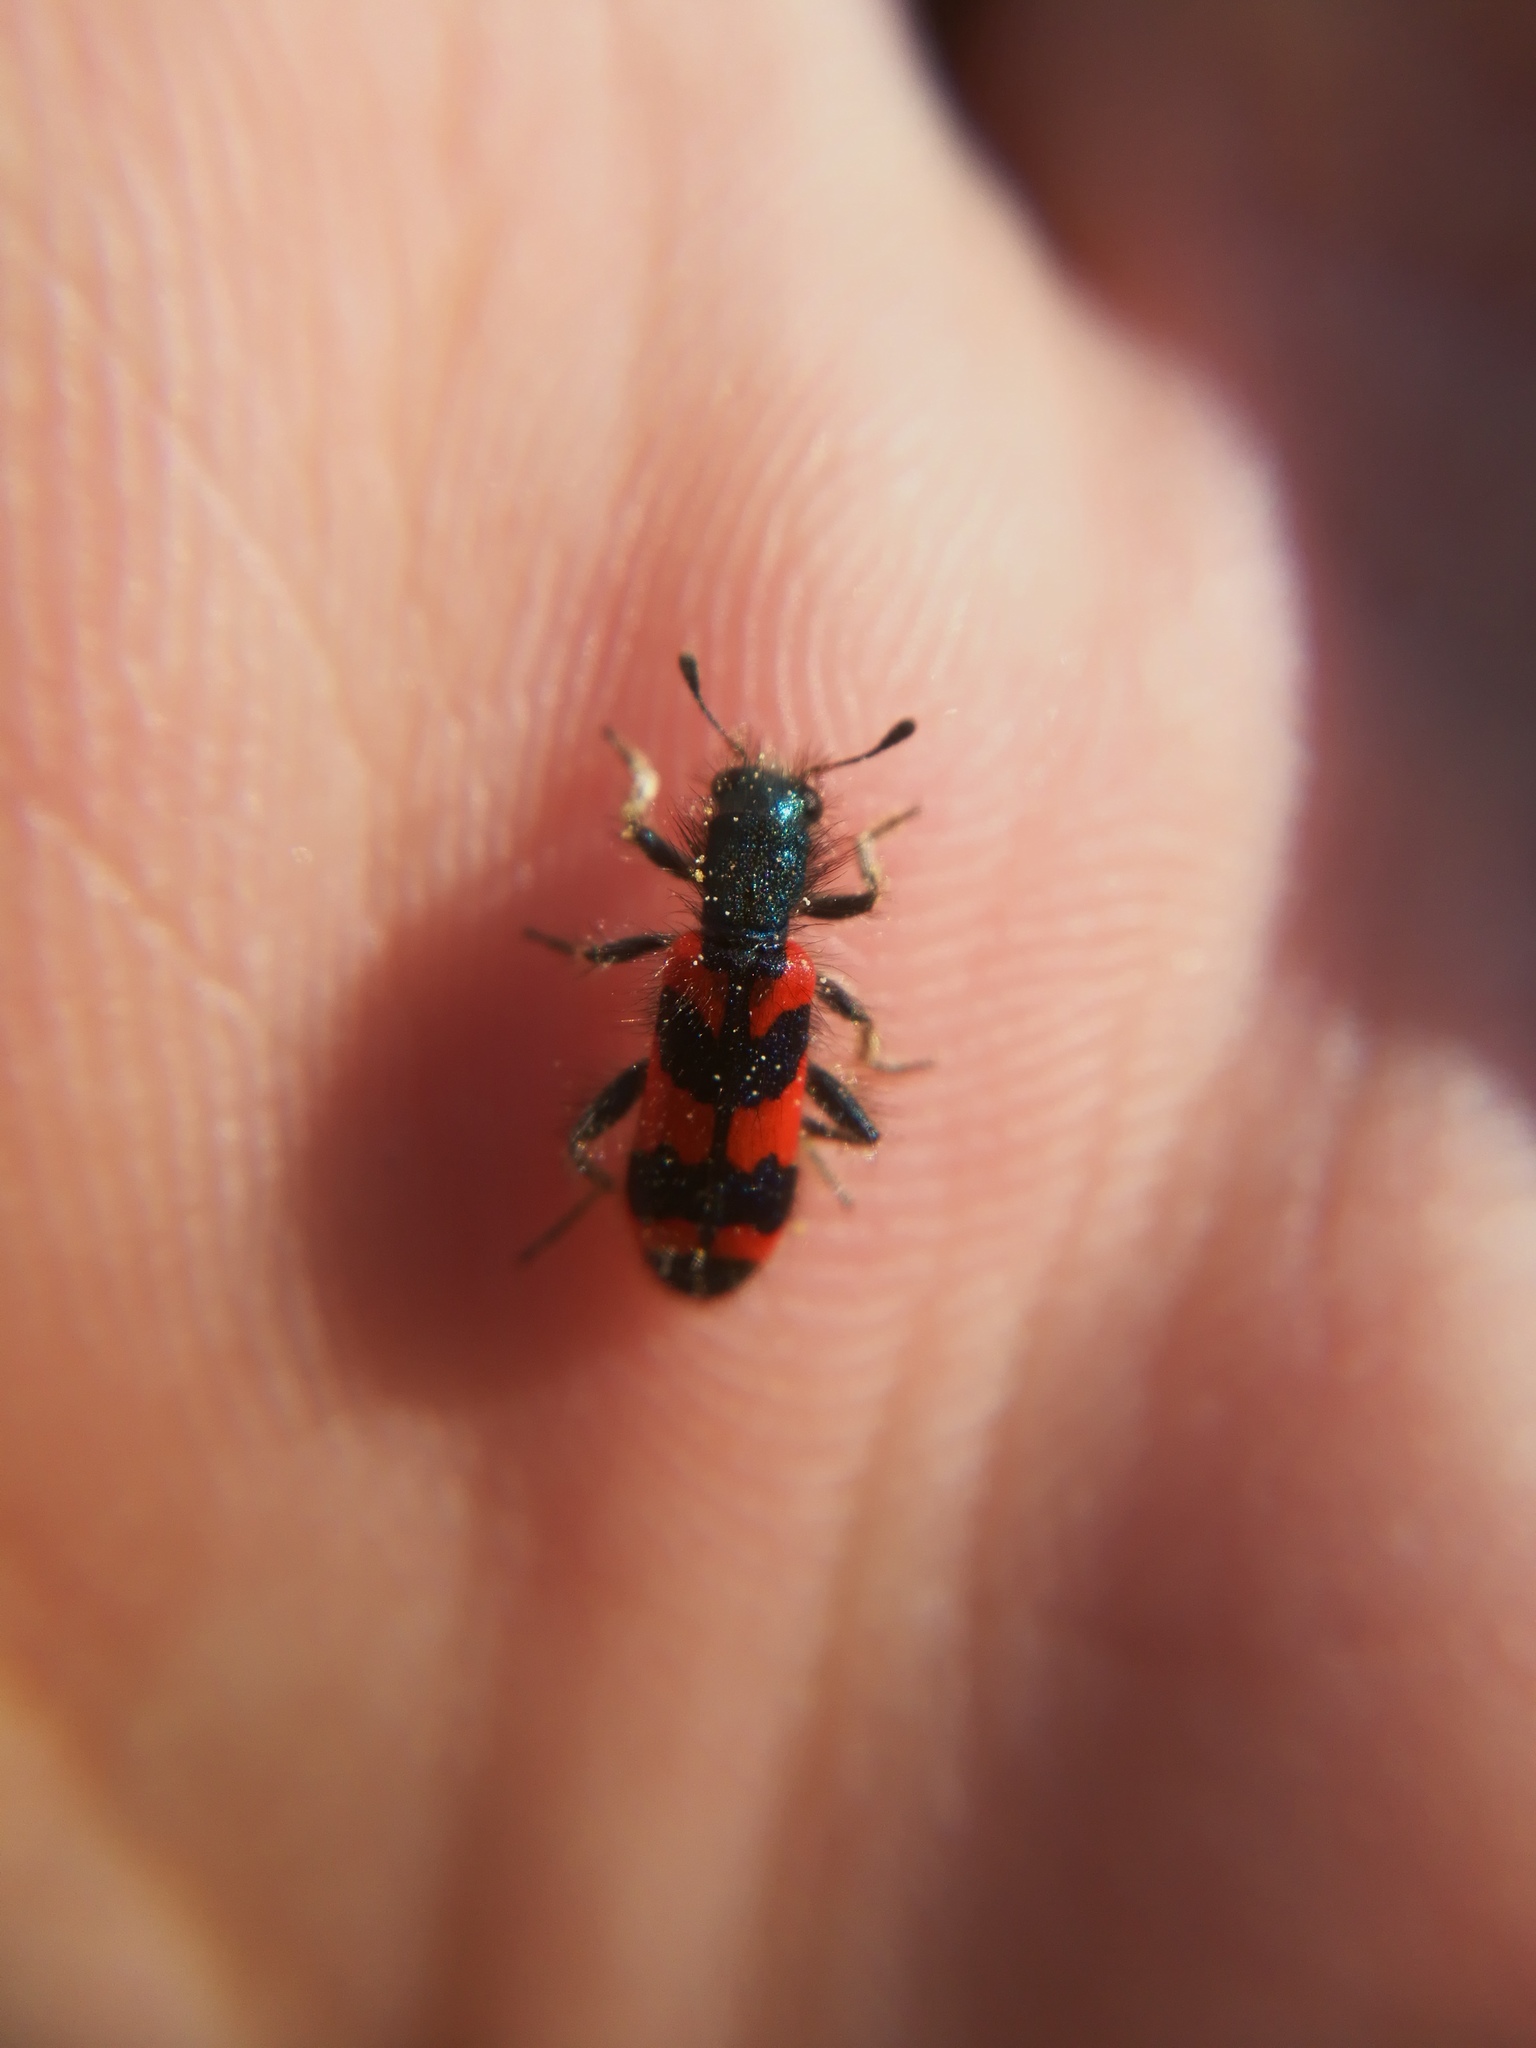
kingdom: Animalia
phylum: Arthropoda
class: Insecta
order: Coleoptera
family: Cleridae
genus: Trichodes
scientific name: Trichodes alvearius
